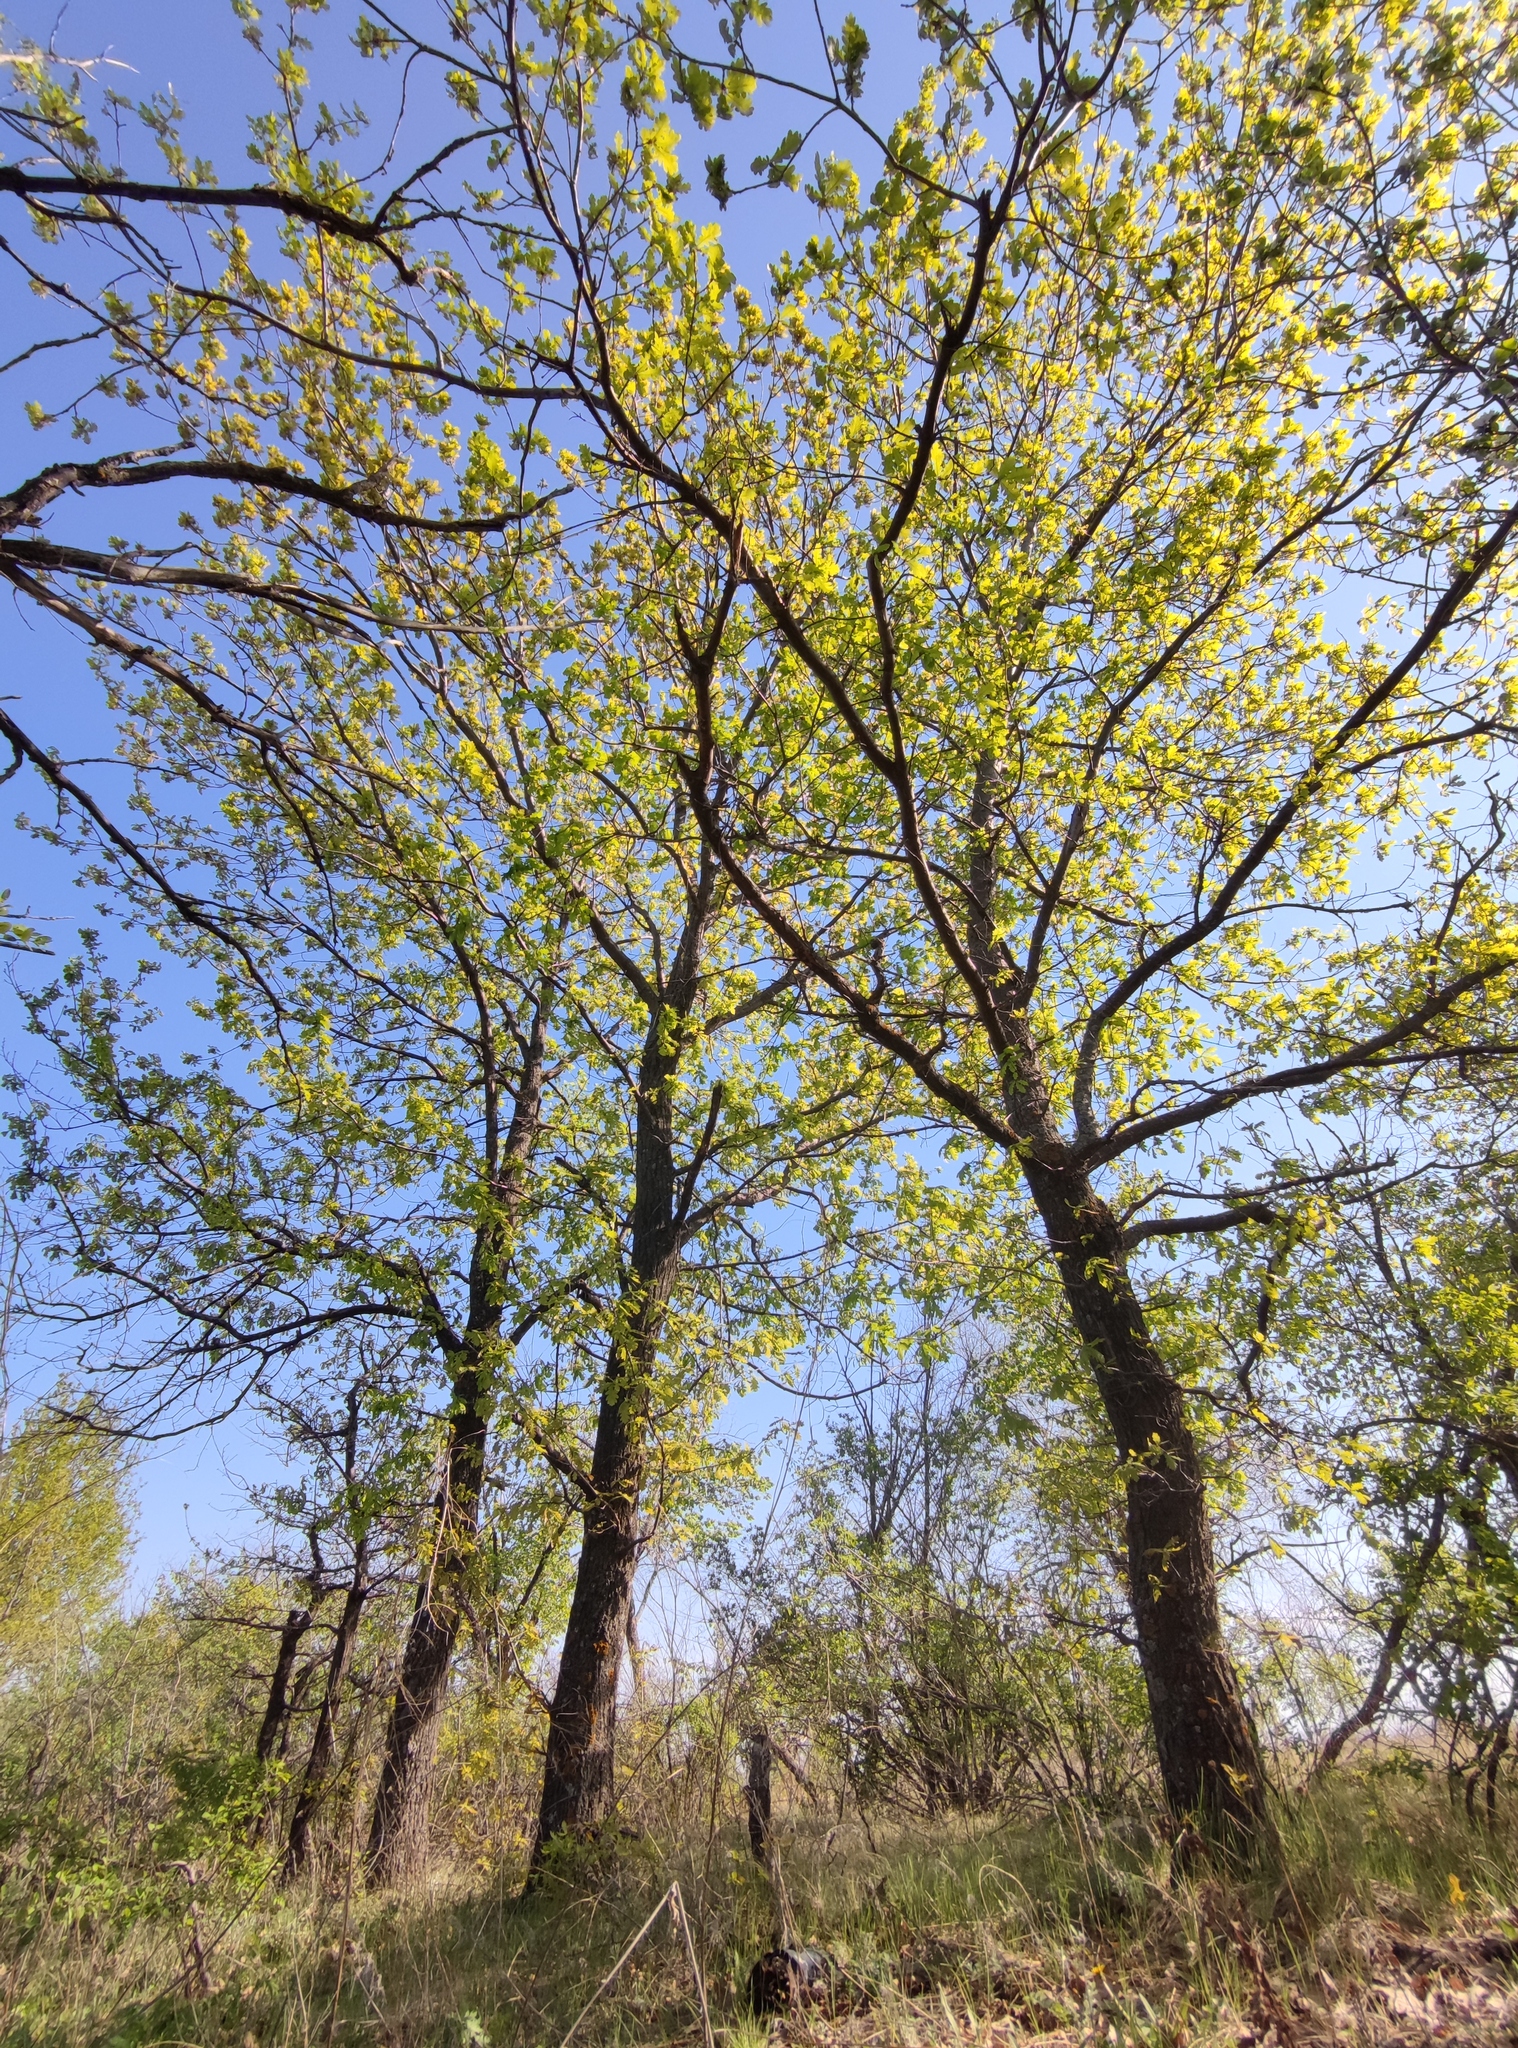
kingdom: Plantae
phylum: Tracheophyta
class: Magnoliopsida
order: Fagales
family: Fagaceae
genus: Quercus
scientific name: Quercus robur
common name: Pedunculate oak
